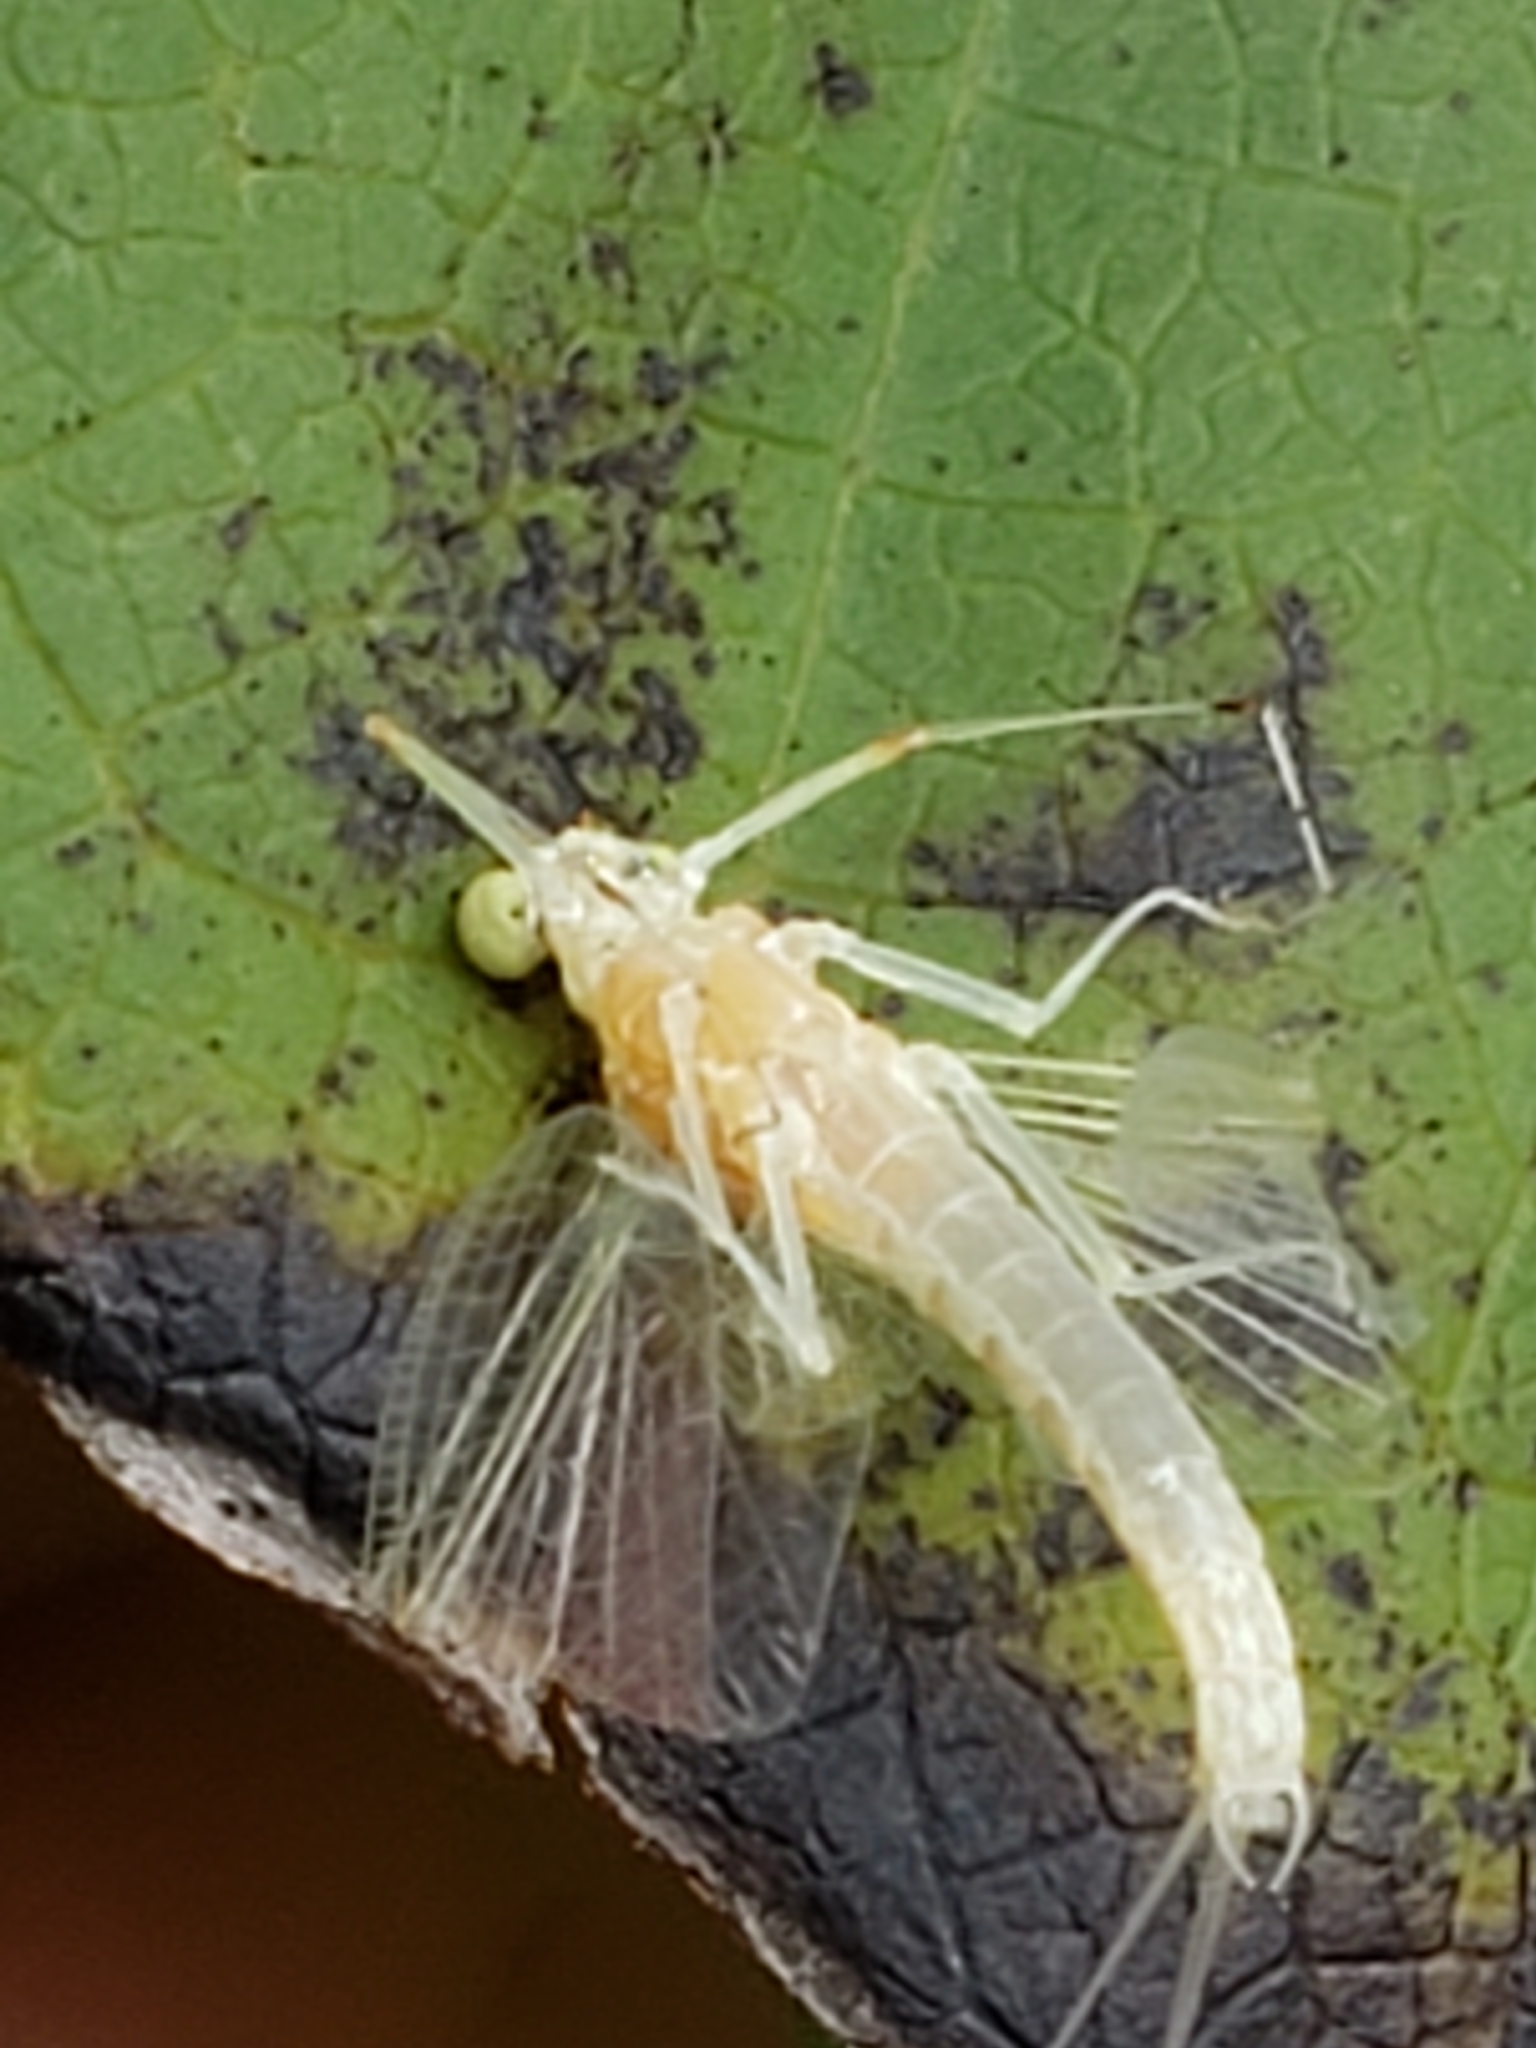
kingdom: Animalia
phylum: Arthropoda
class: Insecta
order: Ephemeroptera
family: Potamanthidae
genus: Anthopotamus
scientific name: Anthopotamus verticis
